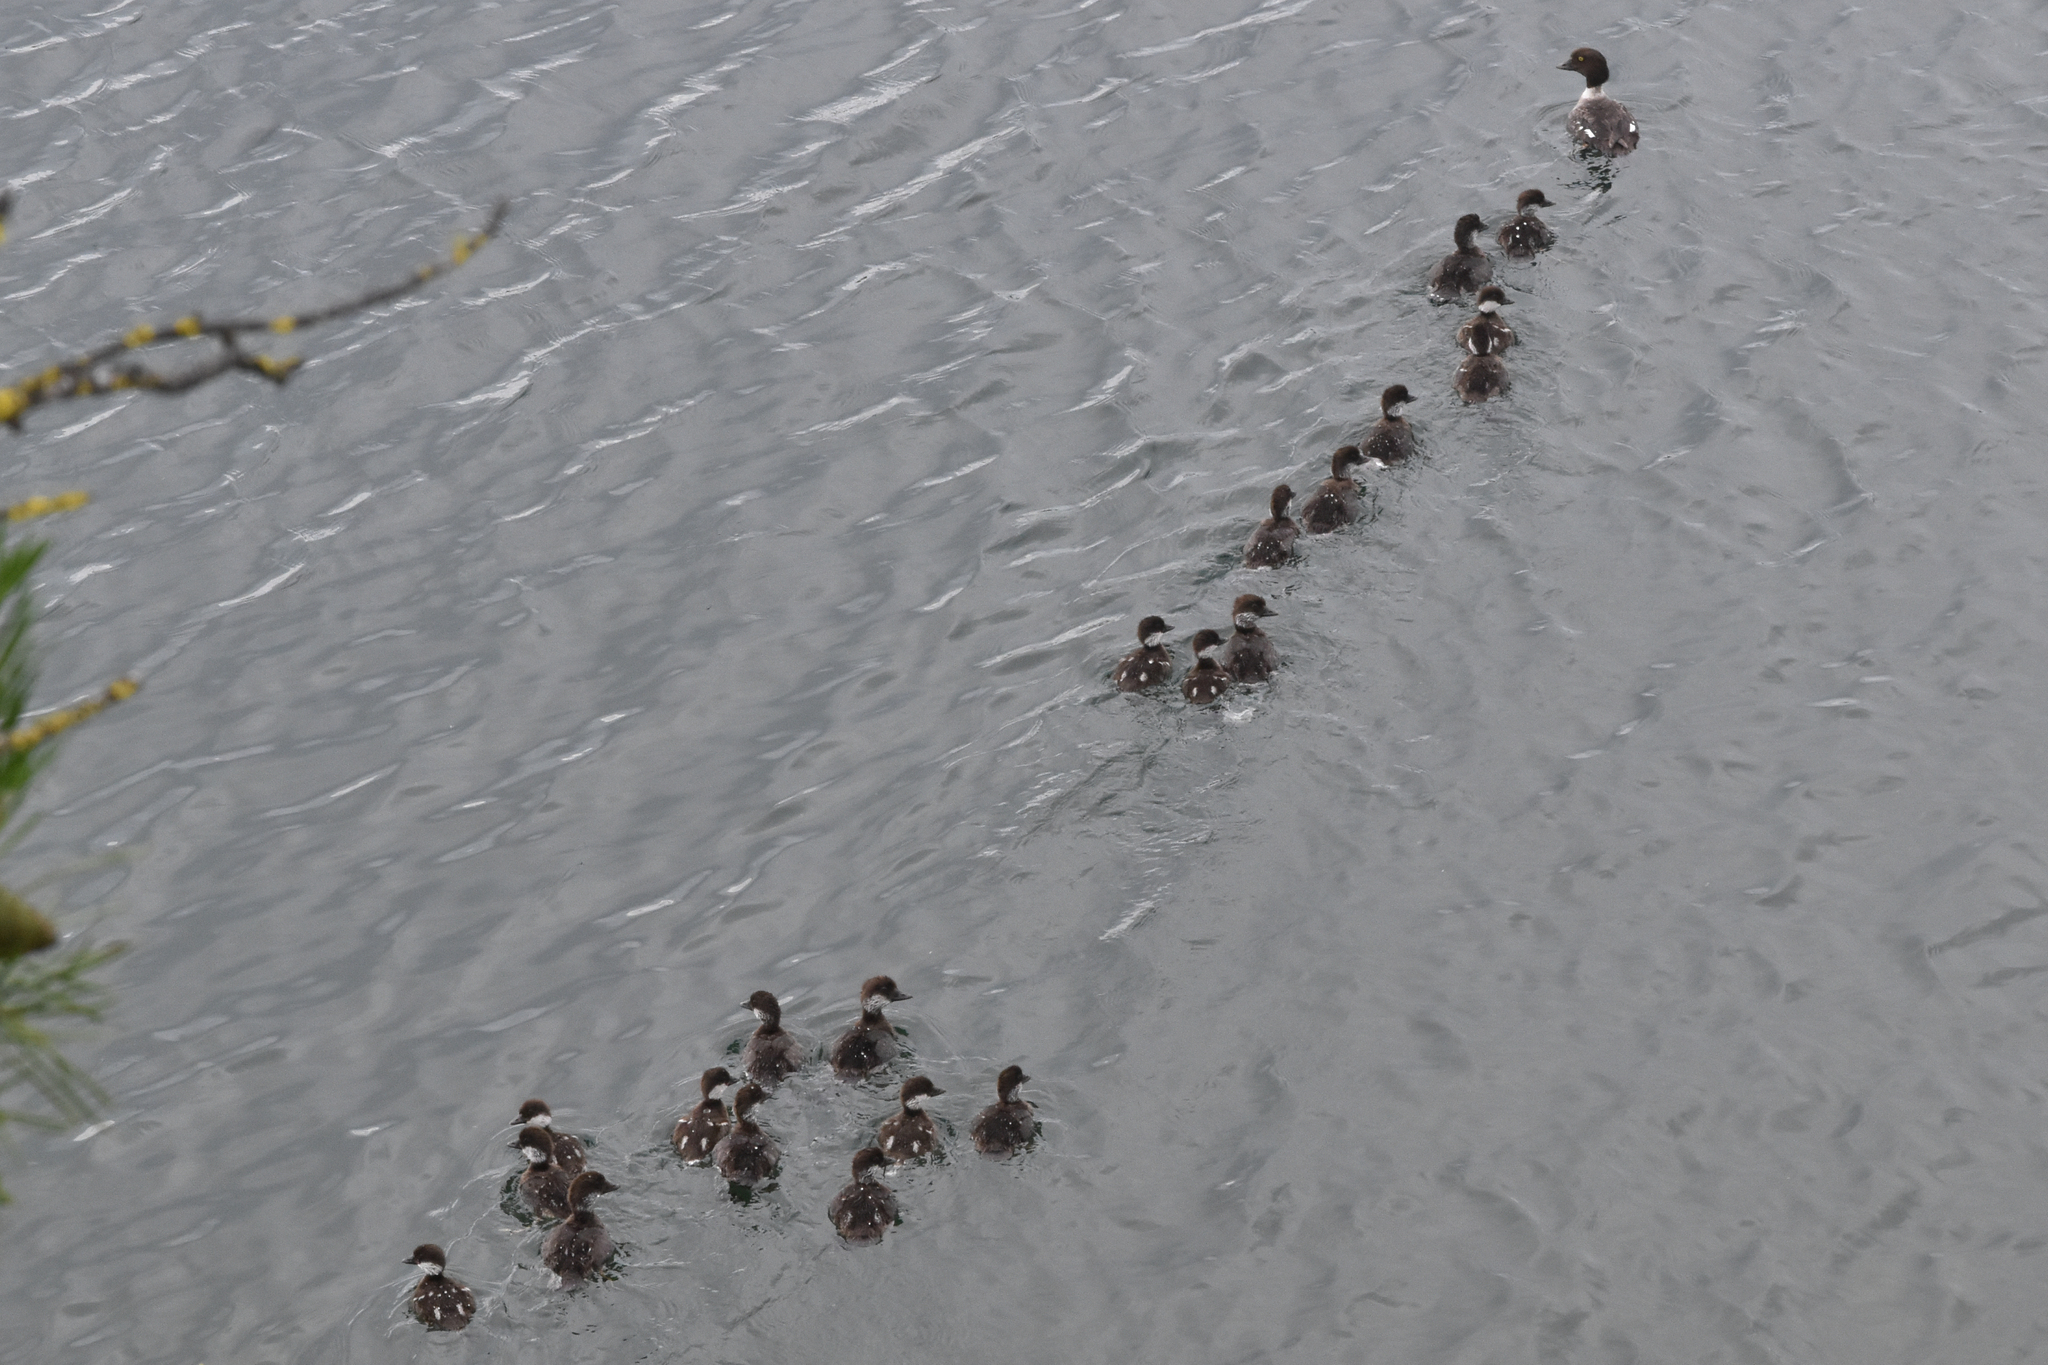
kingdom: Animalia
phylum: Chordata
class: Aves
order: Anseriformes
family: Anatidae
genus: Bucephala
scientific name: Bucephala clangula
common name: Common goldeneye
